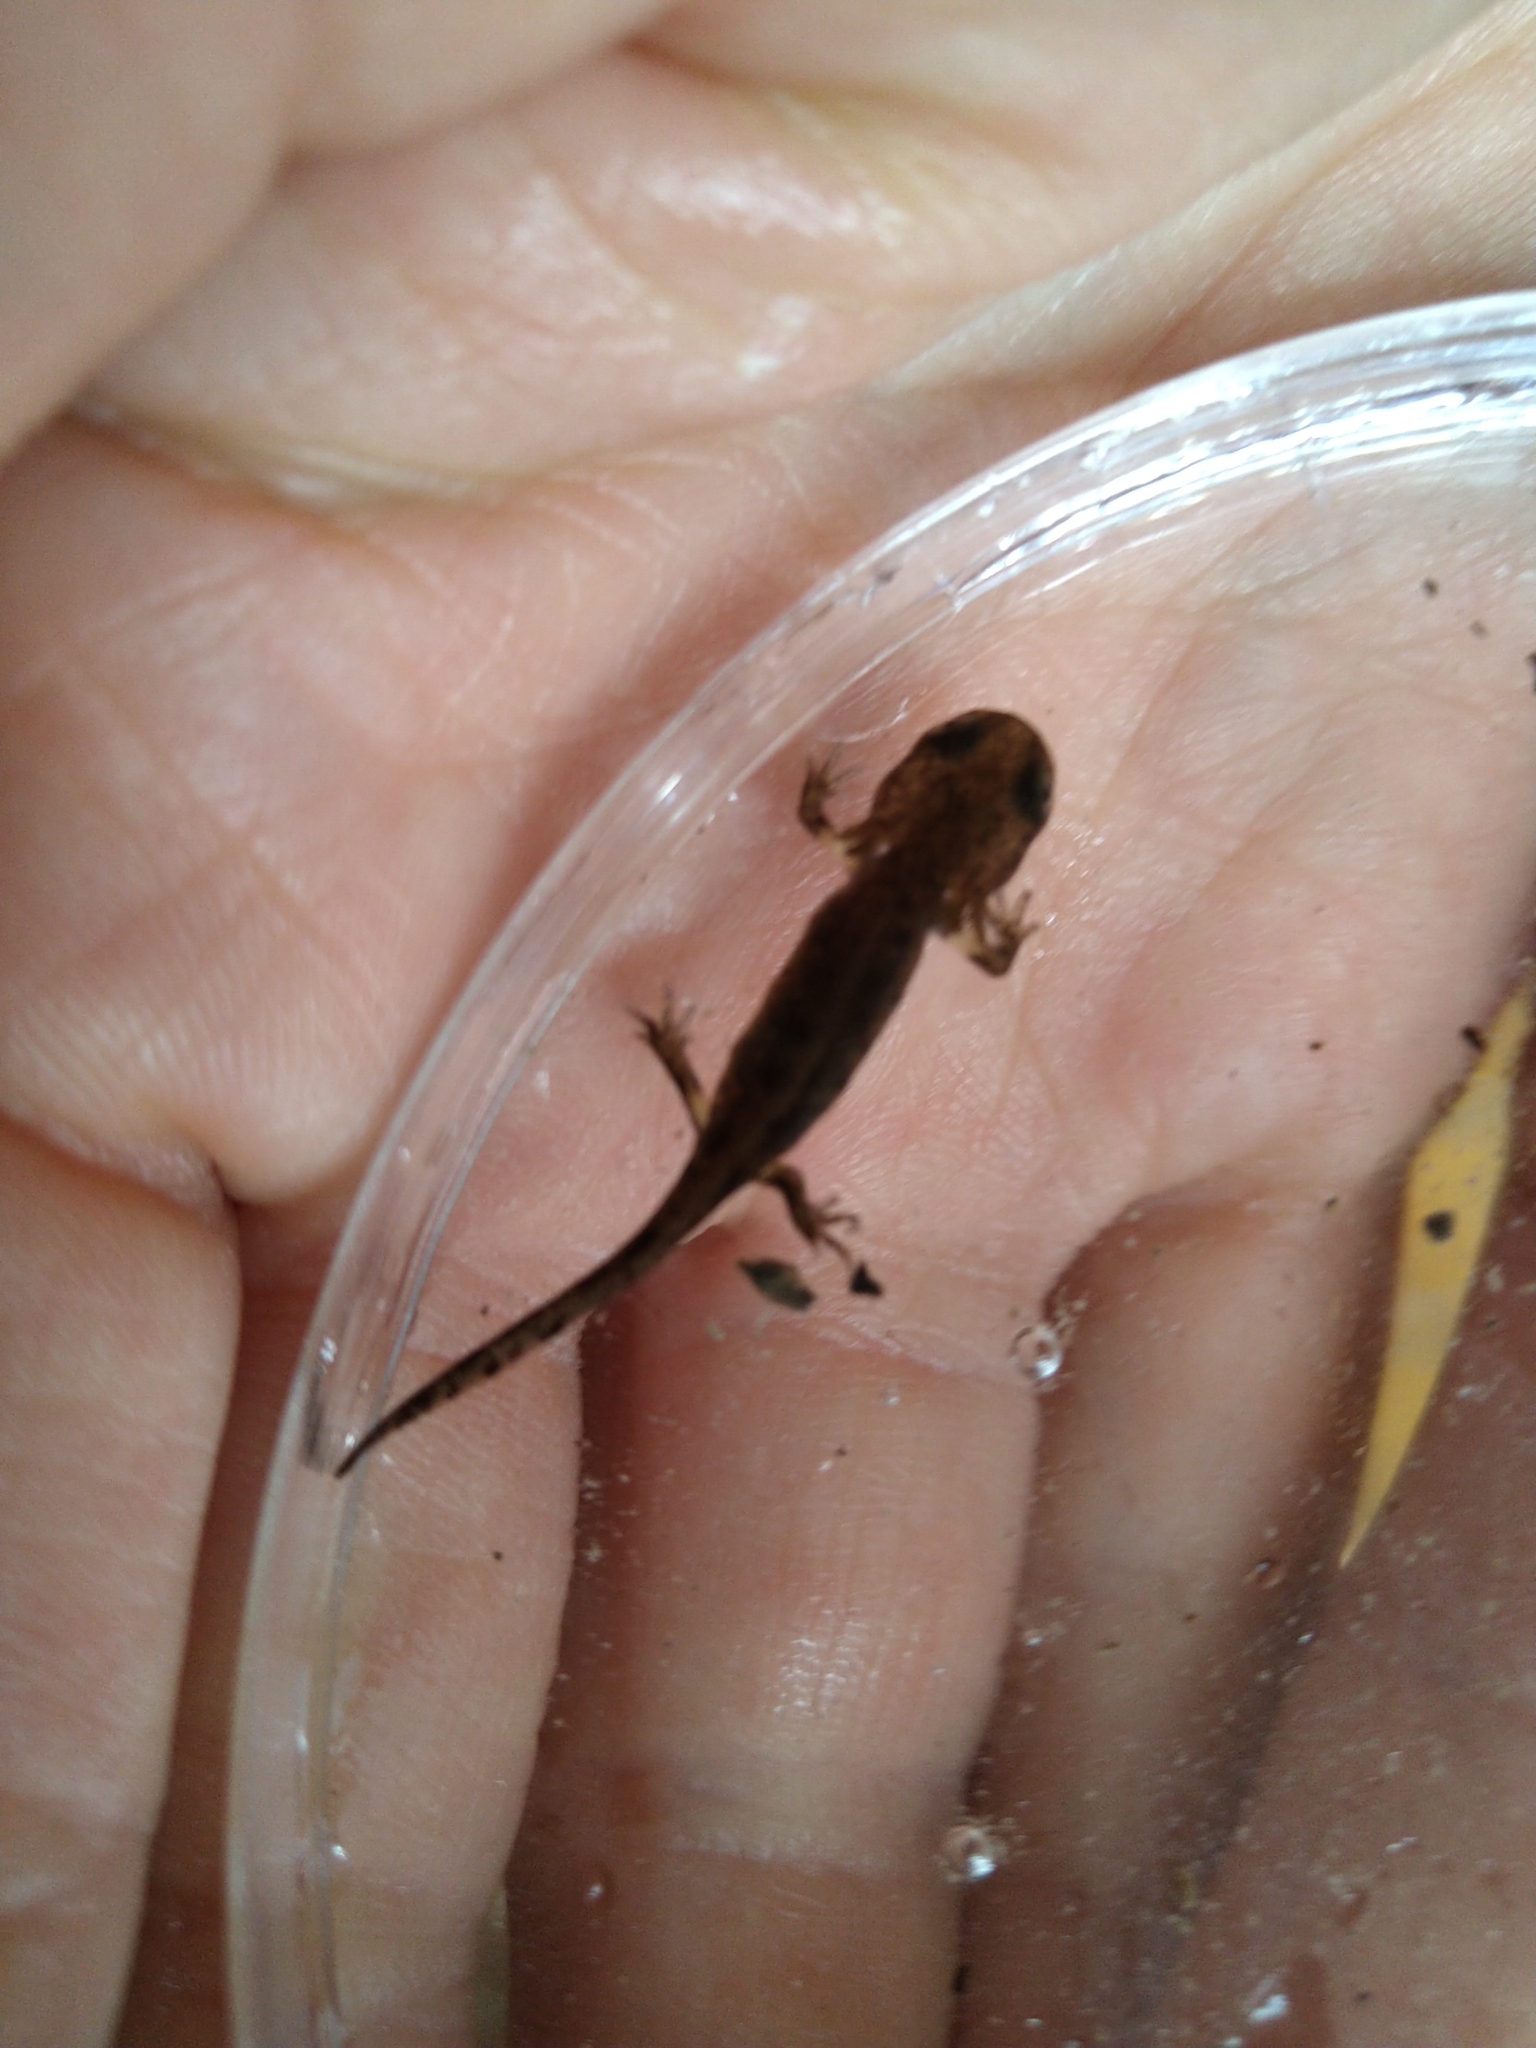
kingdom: Animalia
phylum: Chordata
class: Amphibia
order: Caudata
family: Salamandridae
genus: Salamandra
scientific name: Salamandra salamandra
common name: Fire salamander
